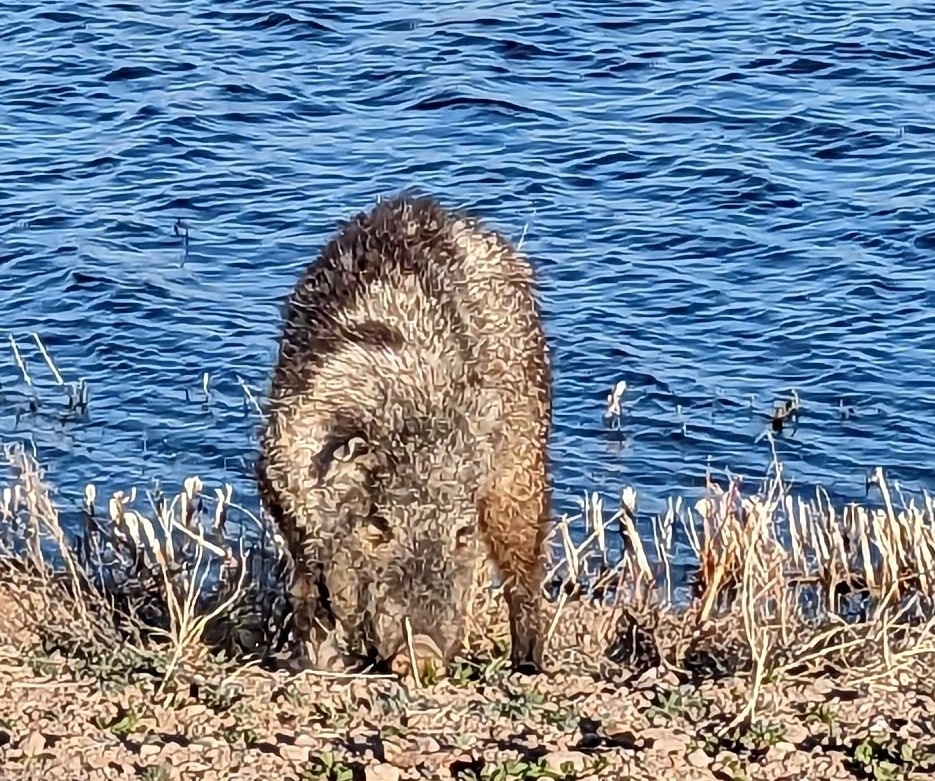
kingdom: Animalia
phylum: Chordata
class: Mammalia
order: Artiodactyla
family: Tayassuidae
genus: Pecari
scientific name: Pecari tajacu
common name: Collared peccary
